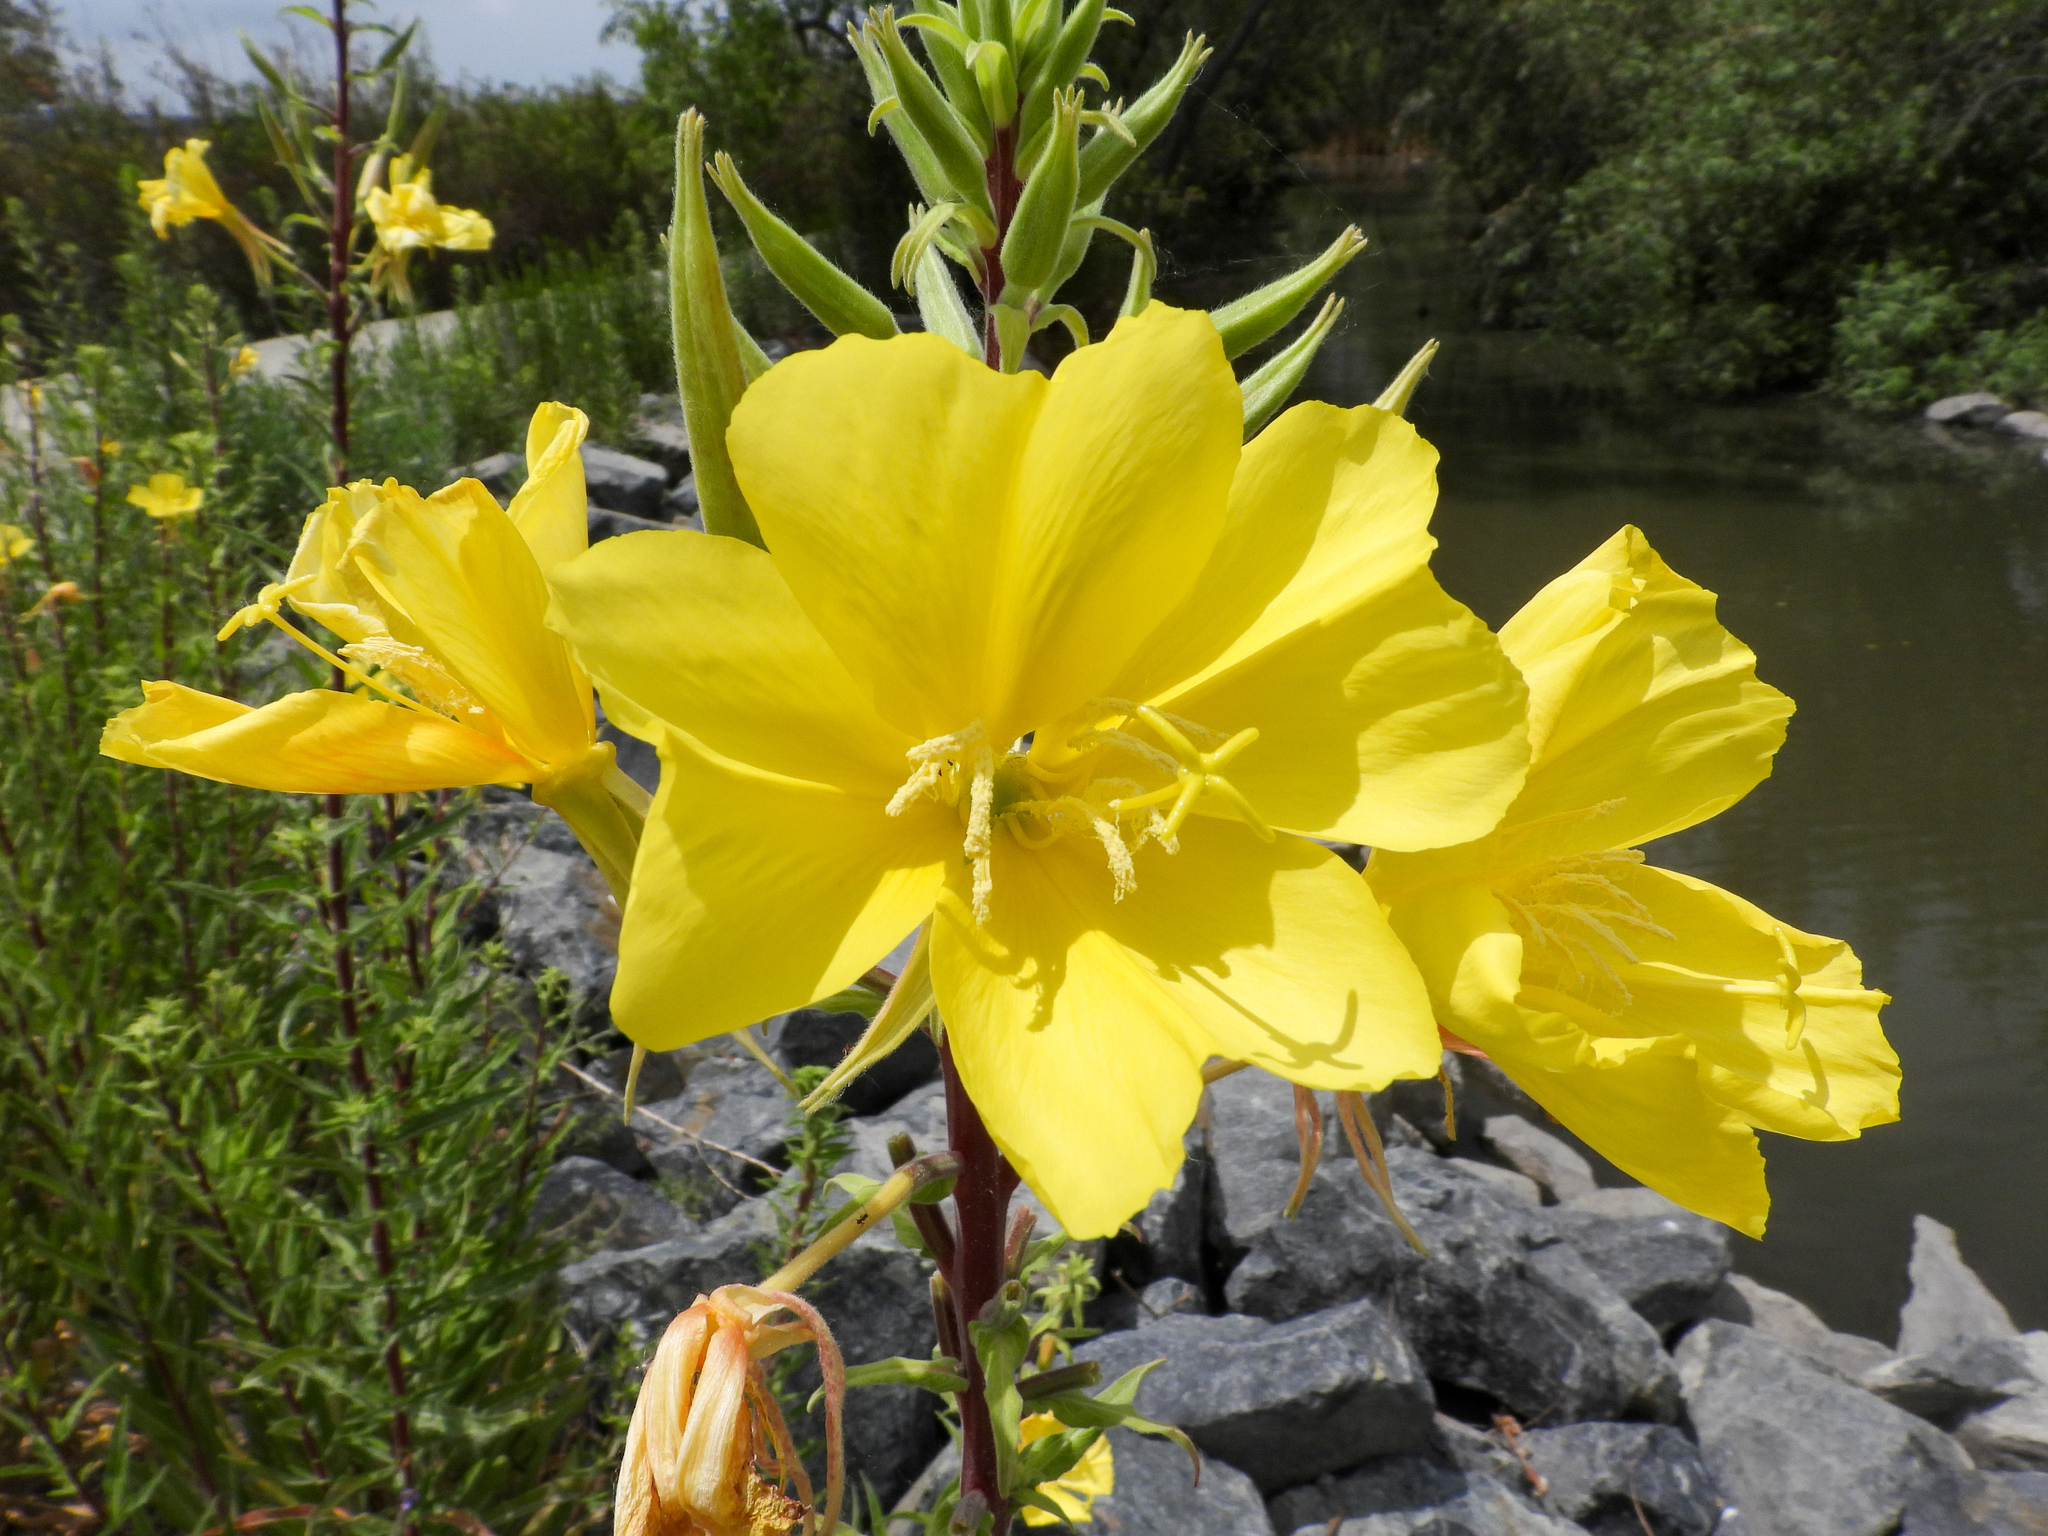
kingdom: Plantae
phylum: Tracheophyta
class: Magnoliopsida
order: Myrtales
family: Onagraceae
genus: Oenothera
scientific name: Oenothera elata
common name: Hooker's evening-primrose
